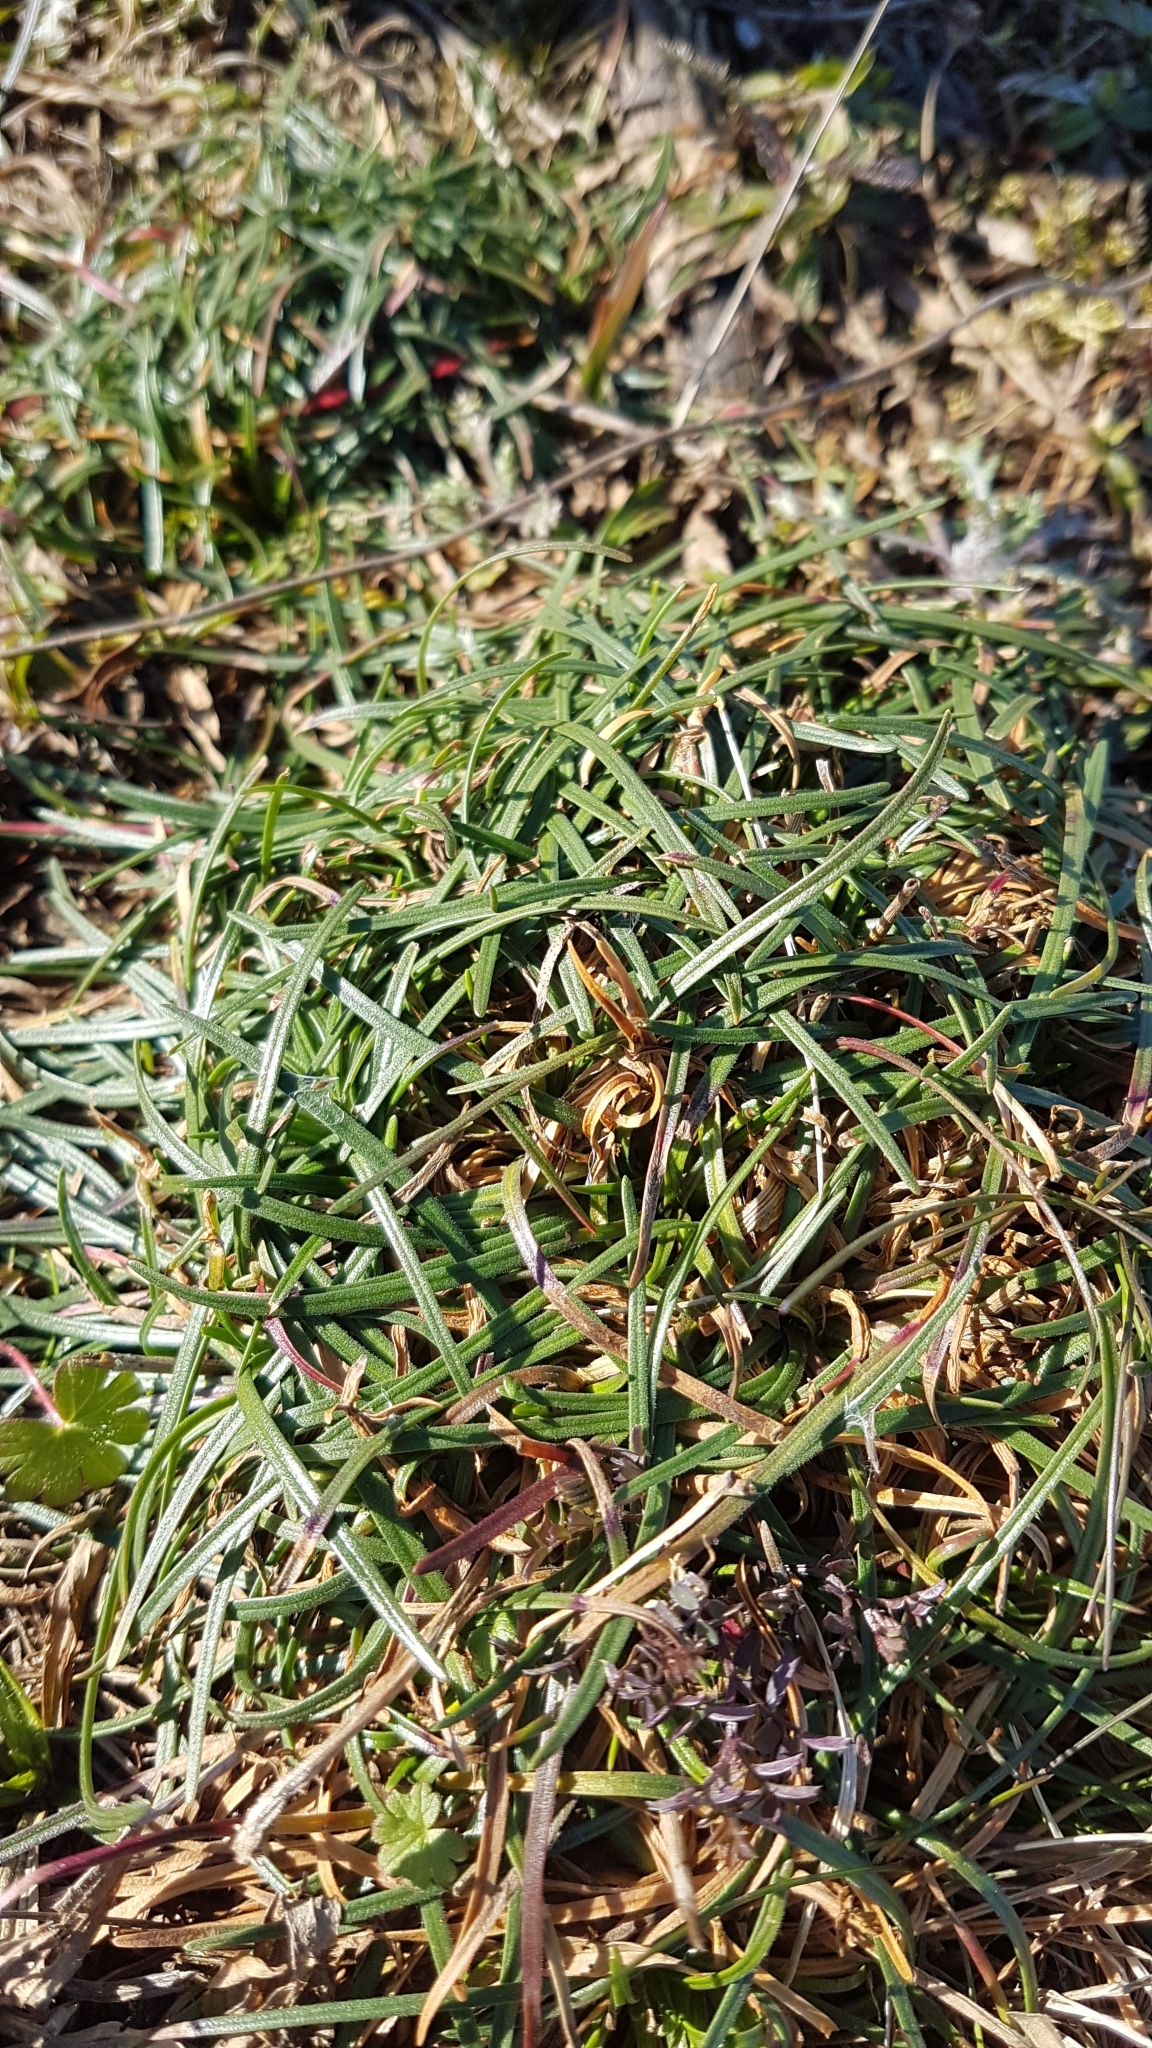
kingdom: Plantae
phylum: Tracheophyta
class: Magnoliopsida
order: Caryophyllales
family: Plumbaginaceae
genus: Armeria
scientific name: Armeria maritima
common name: Thrift
